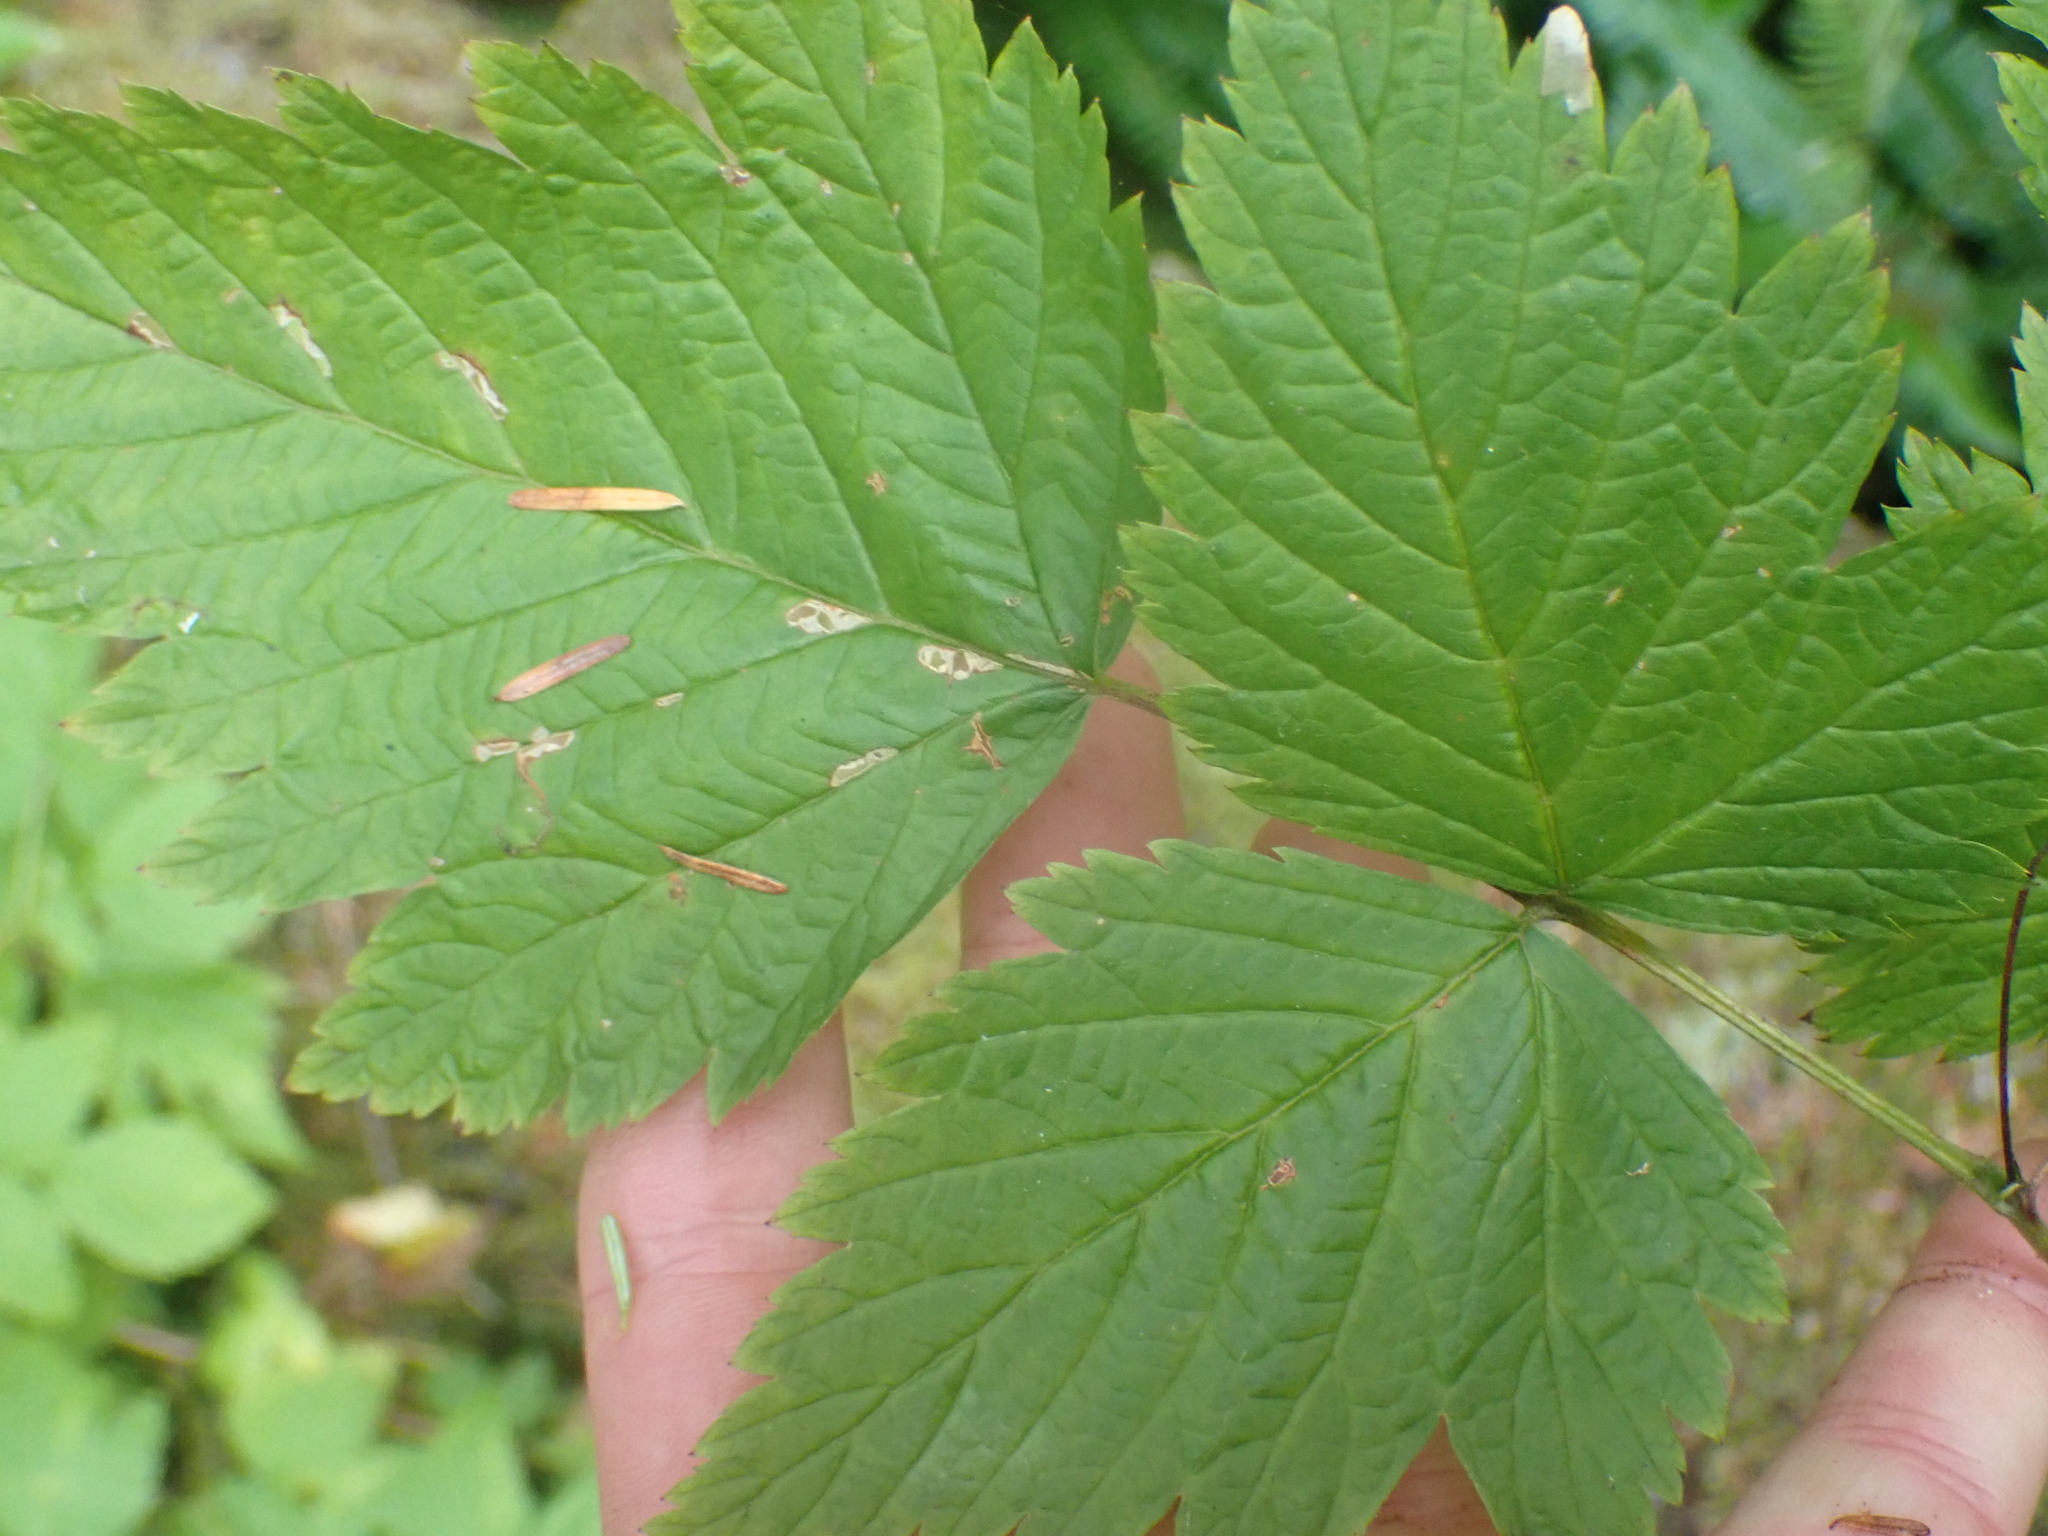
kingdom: Plantae
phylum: Tracheophyta
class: Magnoliopsida
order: Rosales
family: Rosaceae
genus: Rubus
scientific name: Rubus spectabilis
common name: Salmonberry
